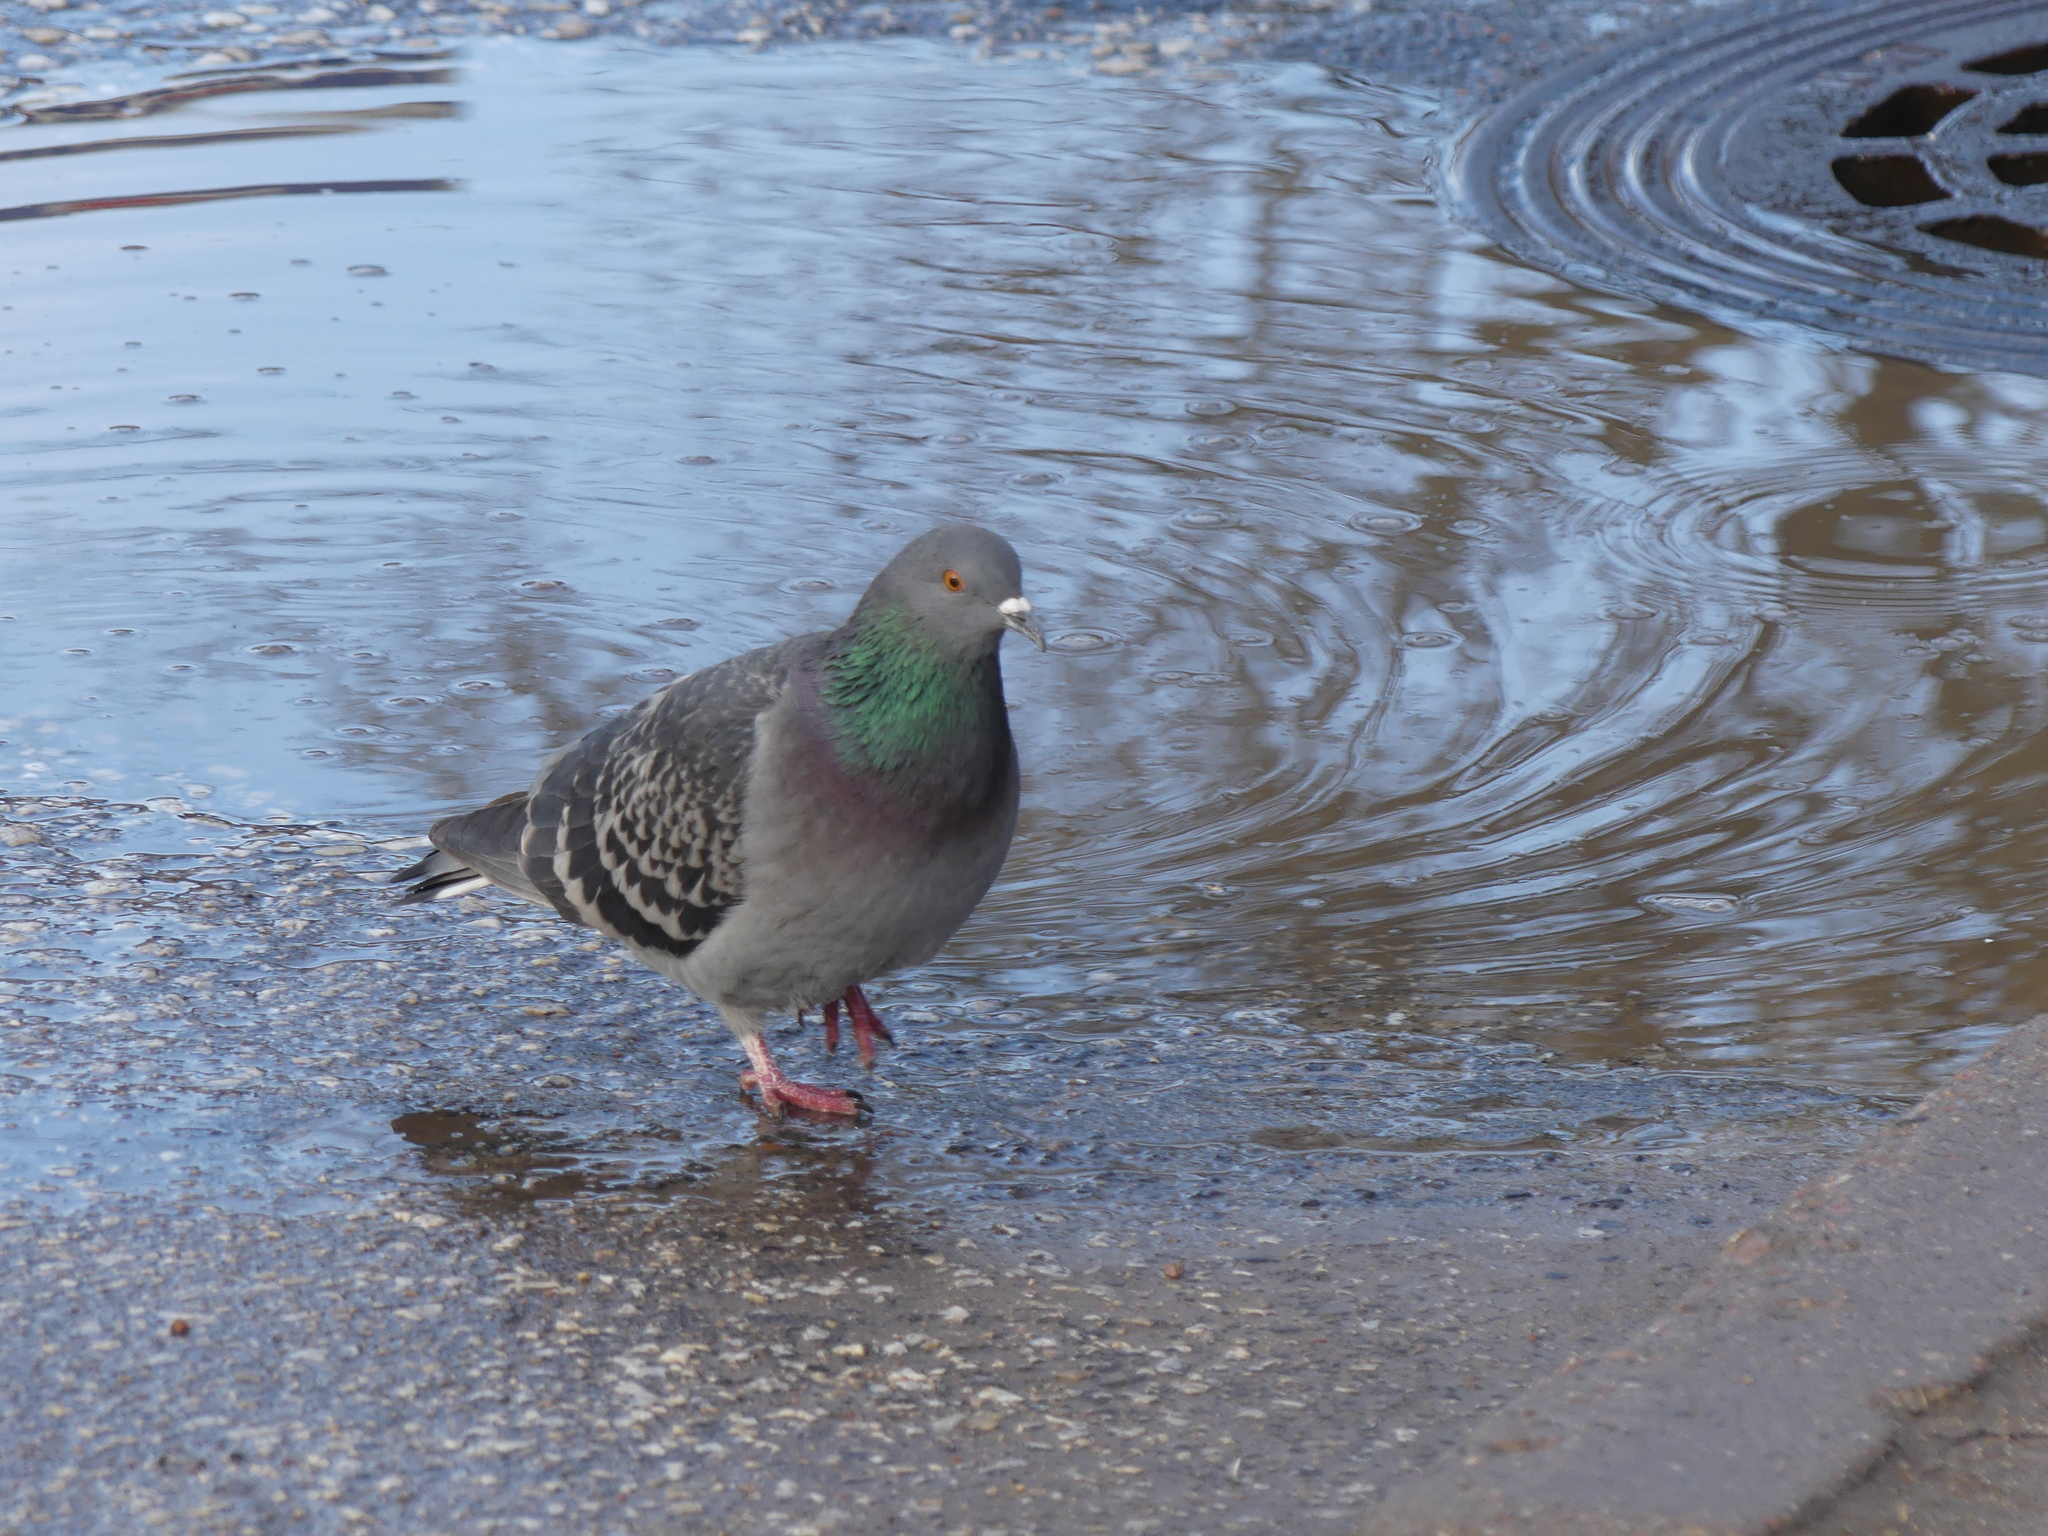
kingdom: Animalia
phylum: Chordata
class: Aves
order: Columbiformes
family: Columbidae
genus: Columba
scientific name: Columba livia
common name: Rock pigeon
